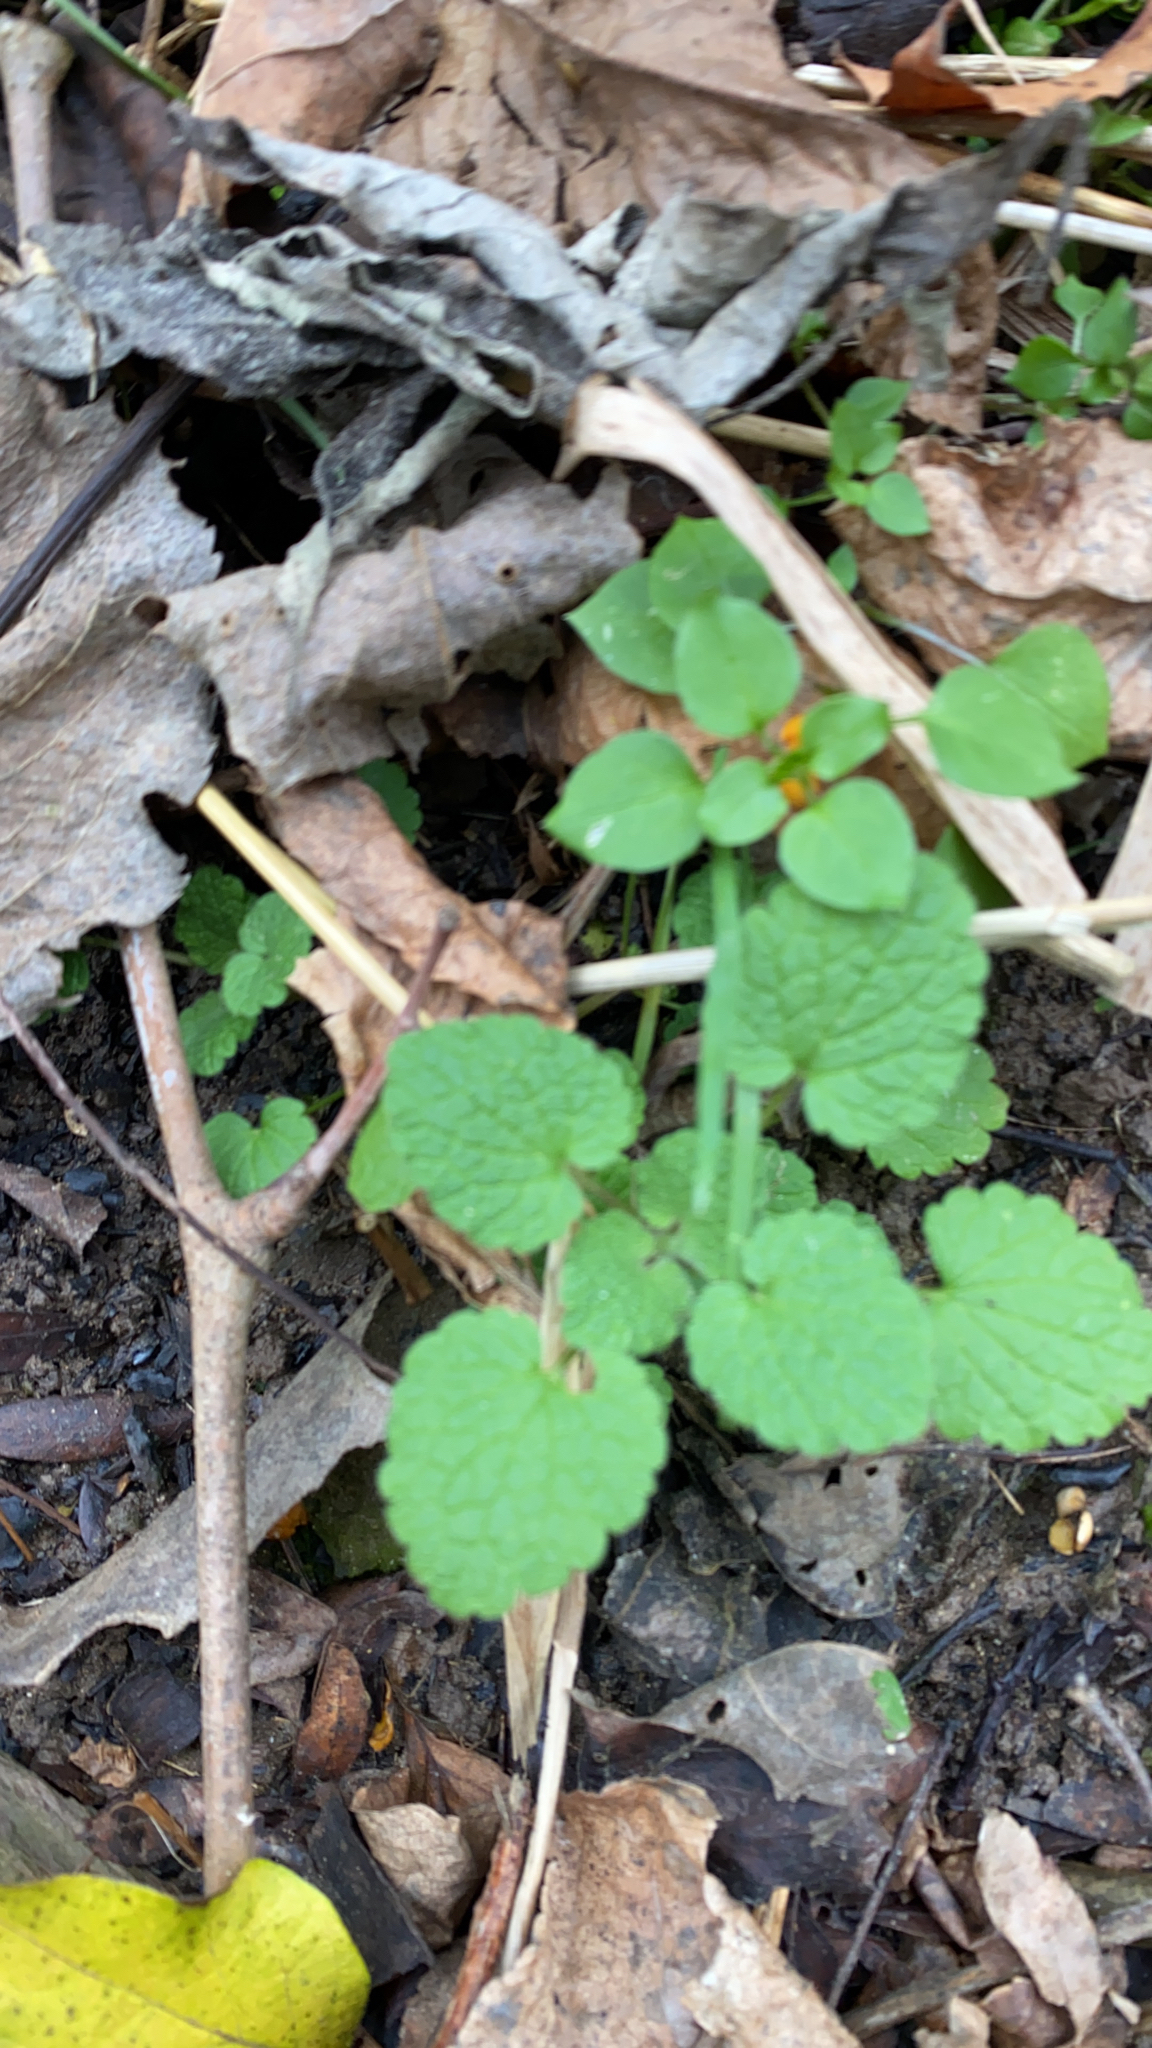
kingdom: Plantae
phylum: Tracheophyta
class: Magnoliopsida
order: Lamiales
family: Lamiaceae
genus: Lamium
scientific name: Lamium purpureum
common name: Red dead-nettle
